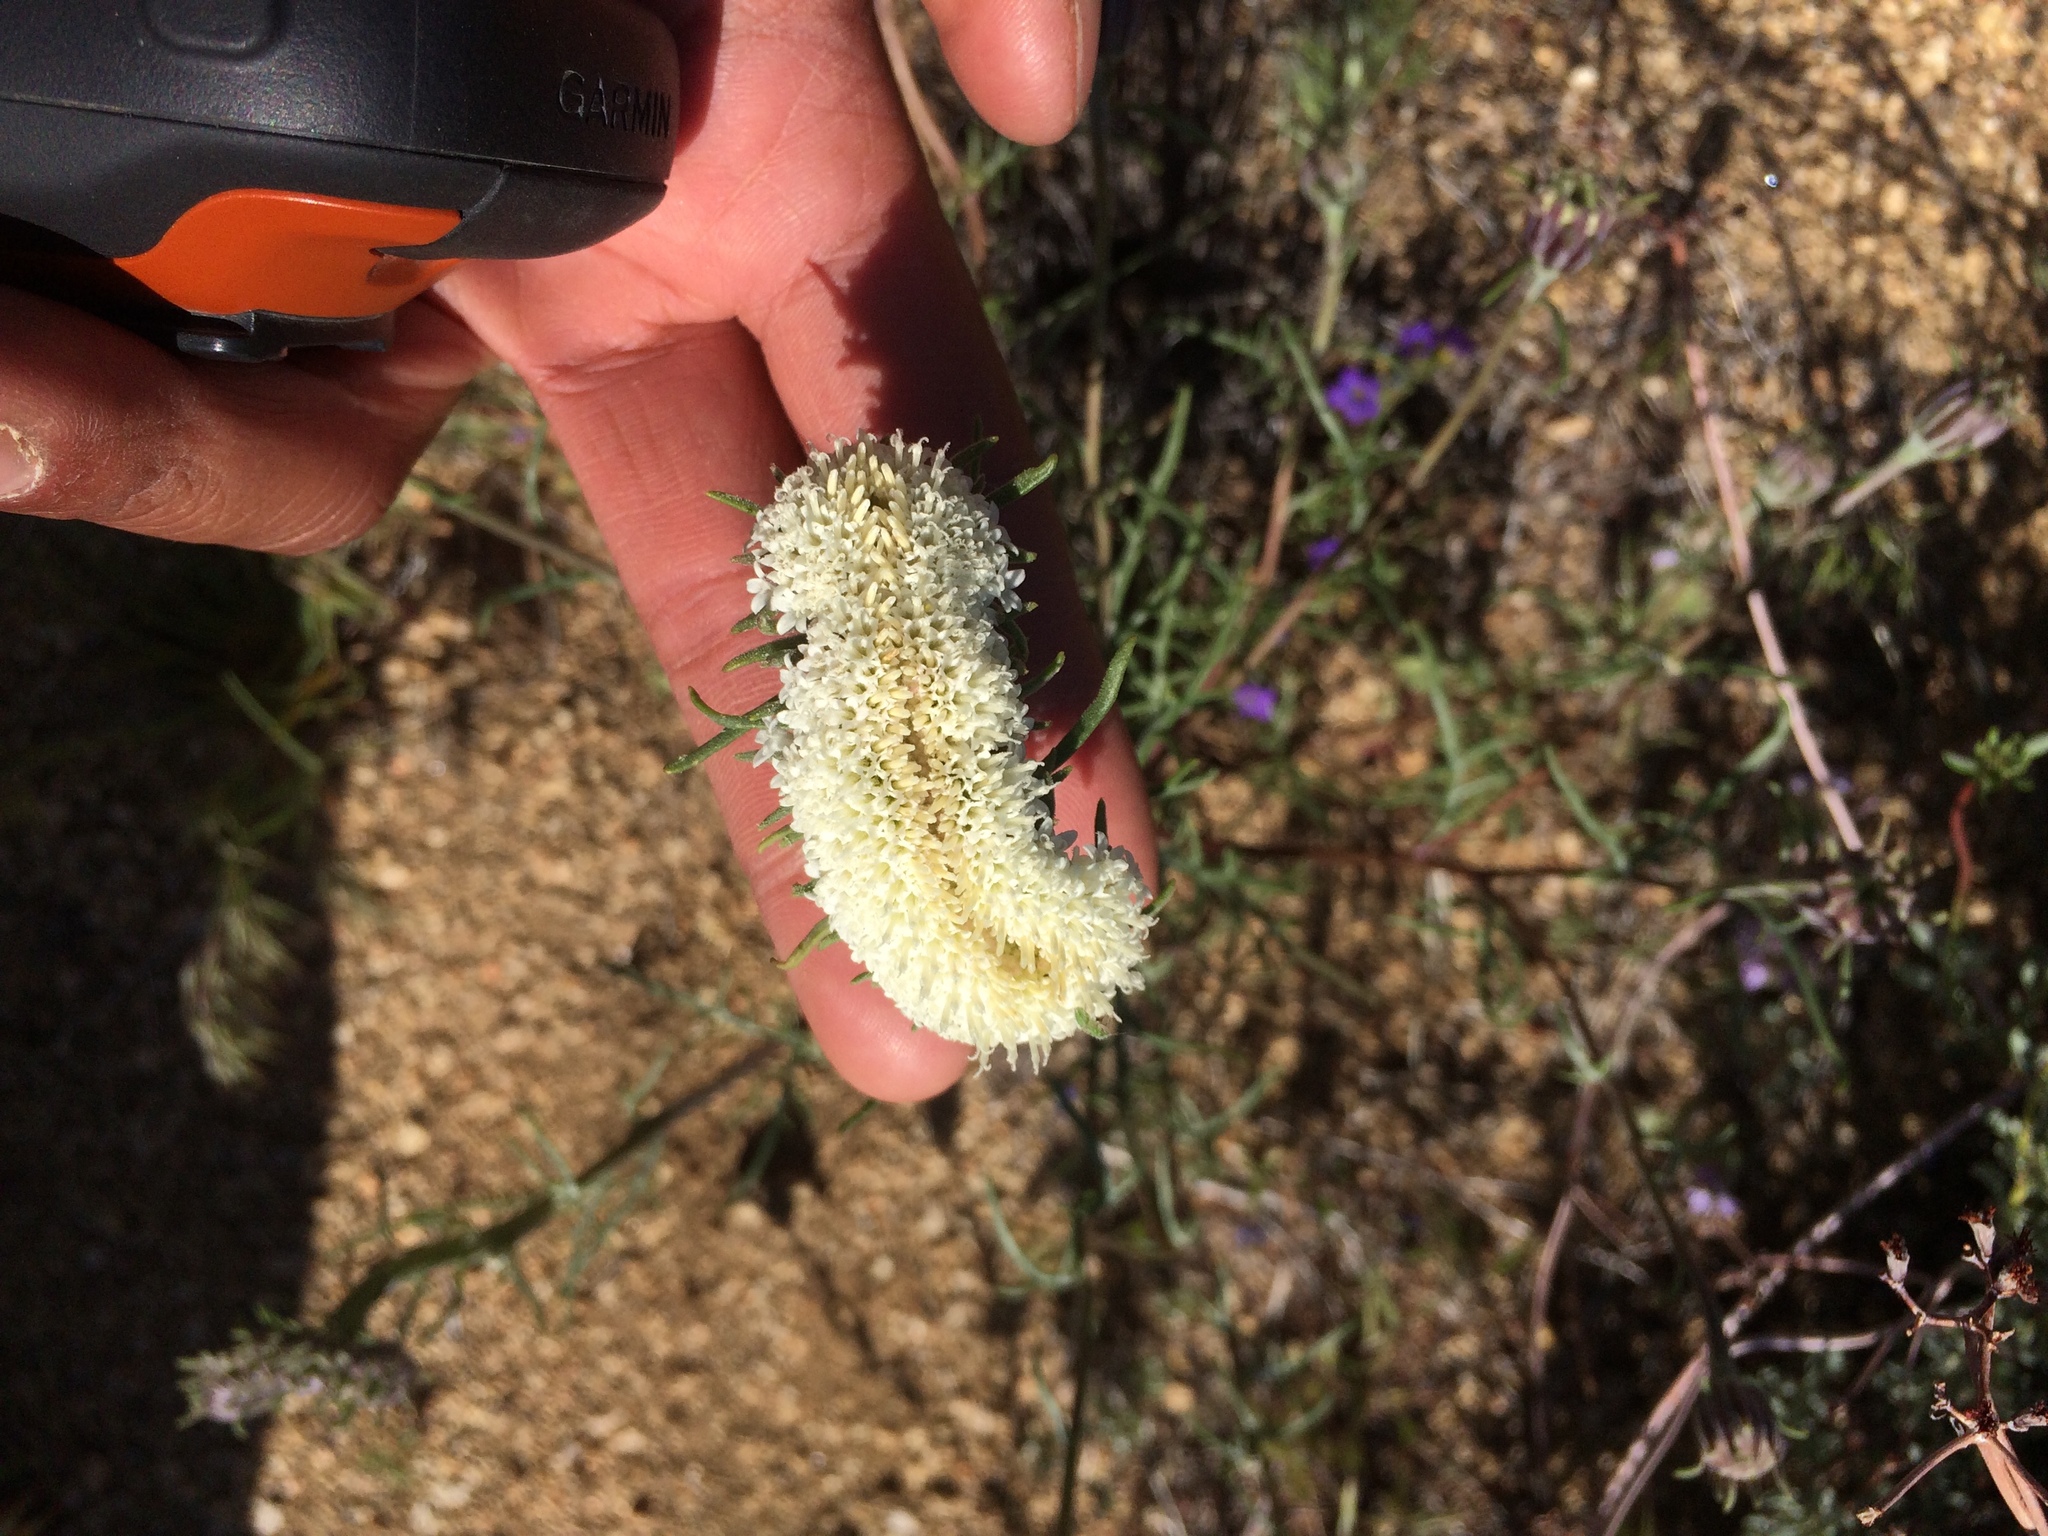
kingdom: Plantae
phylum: Tracheophyta
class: Magnoliopsida
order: Asterales
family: Asteraceae
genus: Chaenactis
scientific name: Chaenactis xantiana
